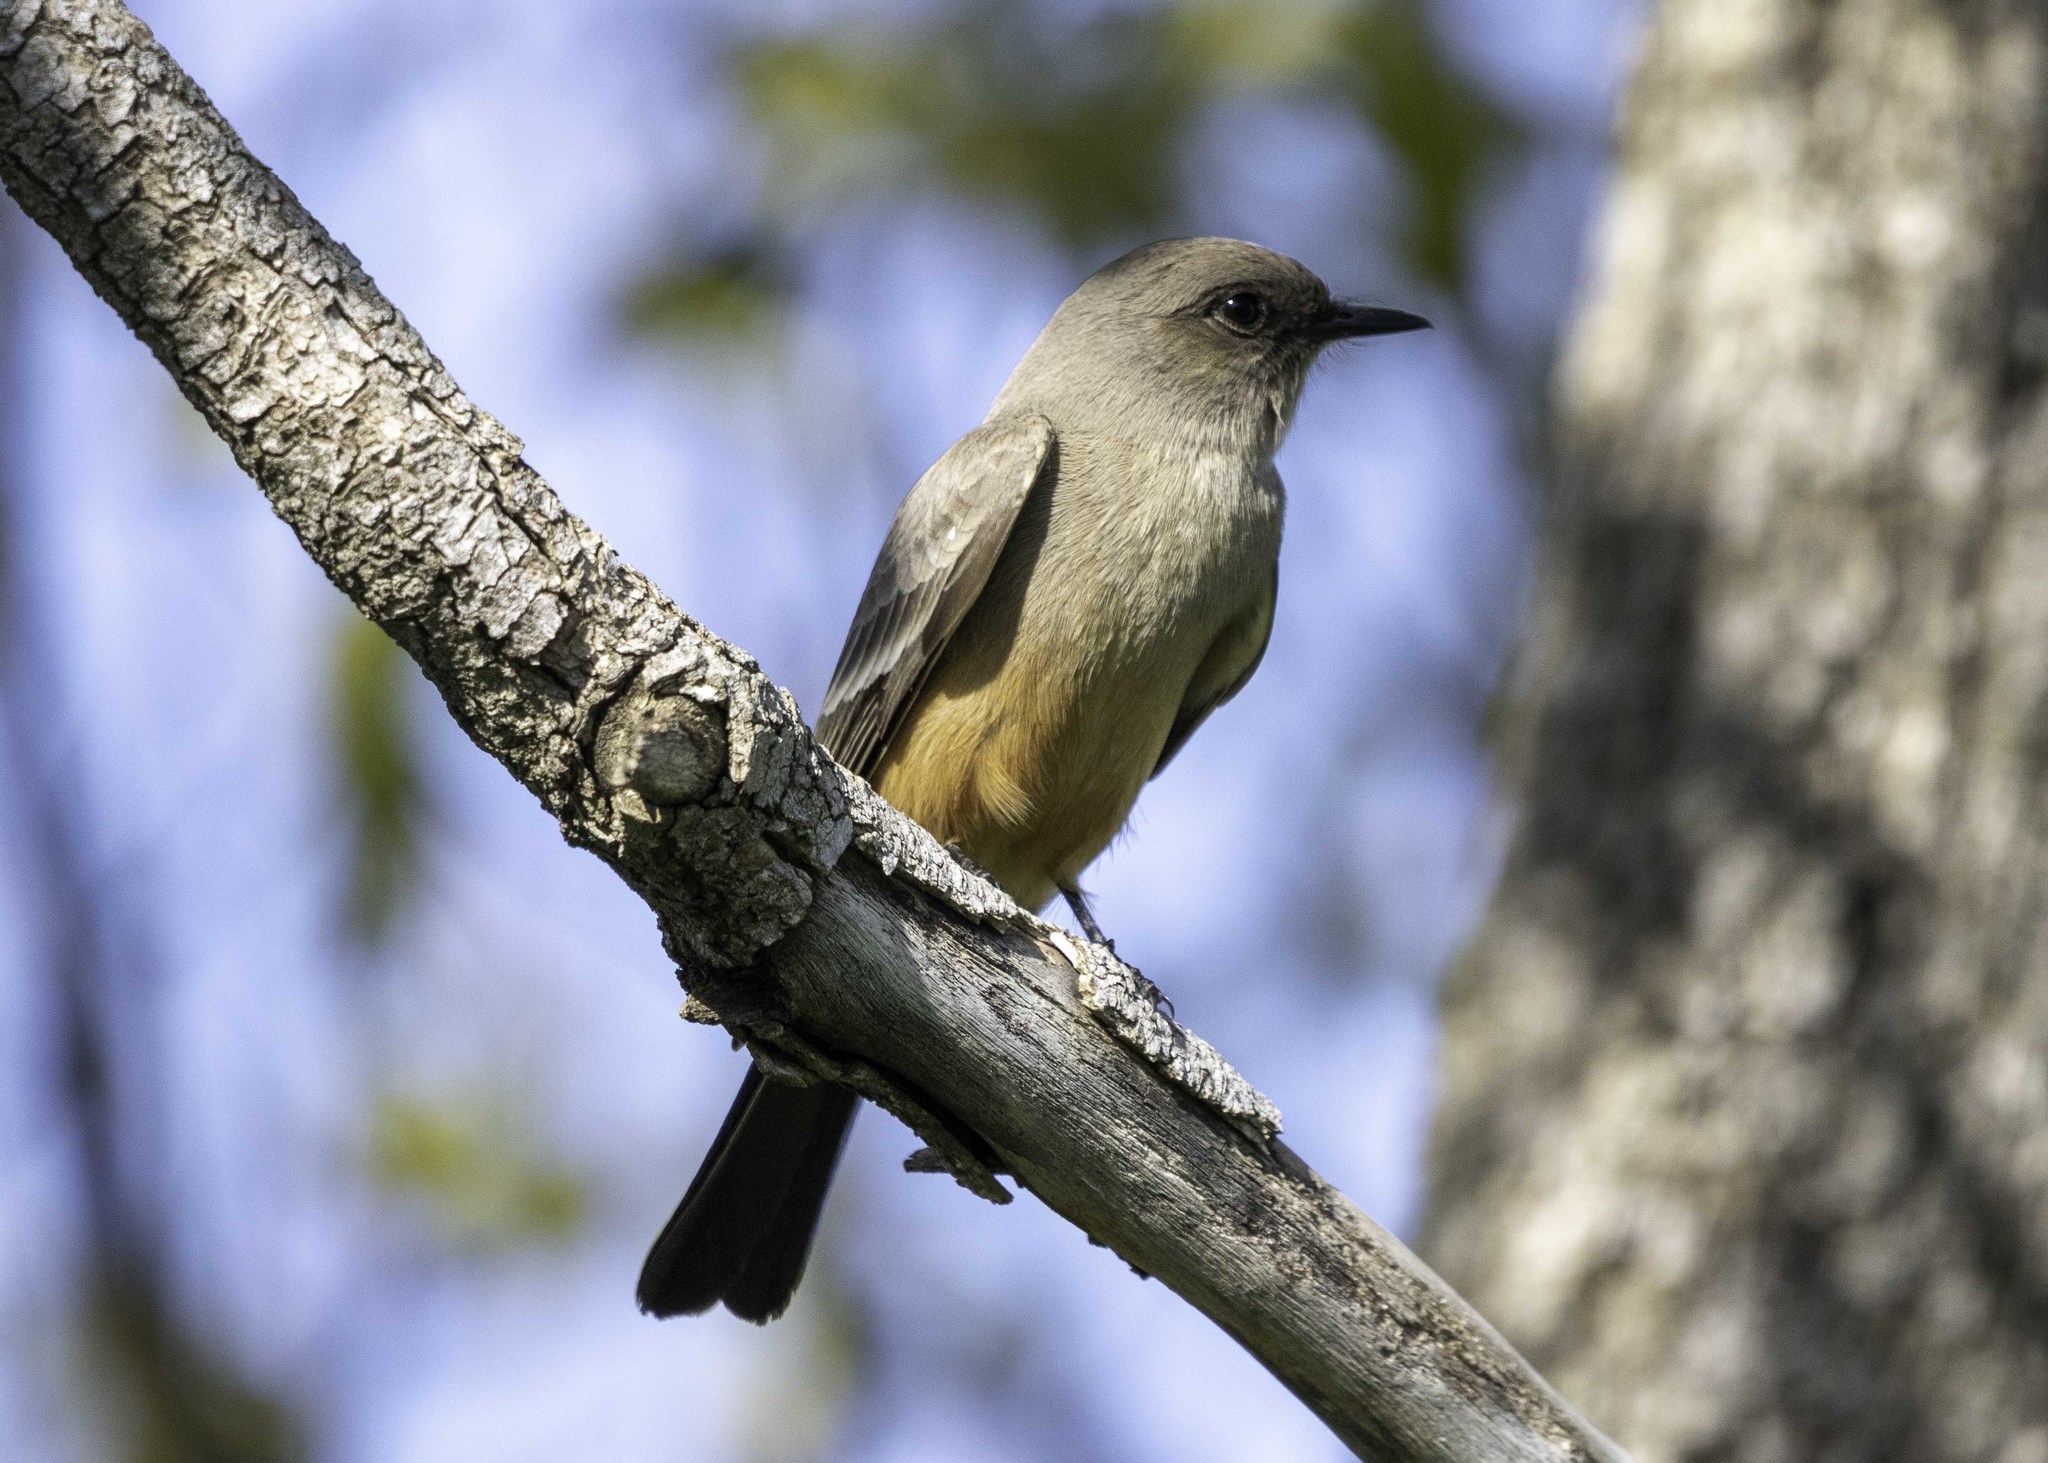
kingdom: Animalia
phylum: Chordata
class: Aves
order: Passeriformes
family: Tyrannidae
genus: Sayornis
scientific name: Sayornis saya
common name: Say's phoebe
